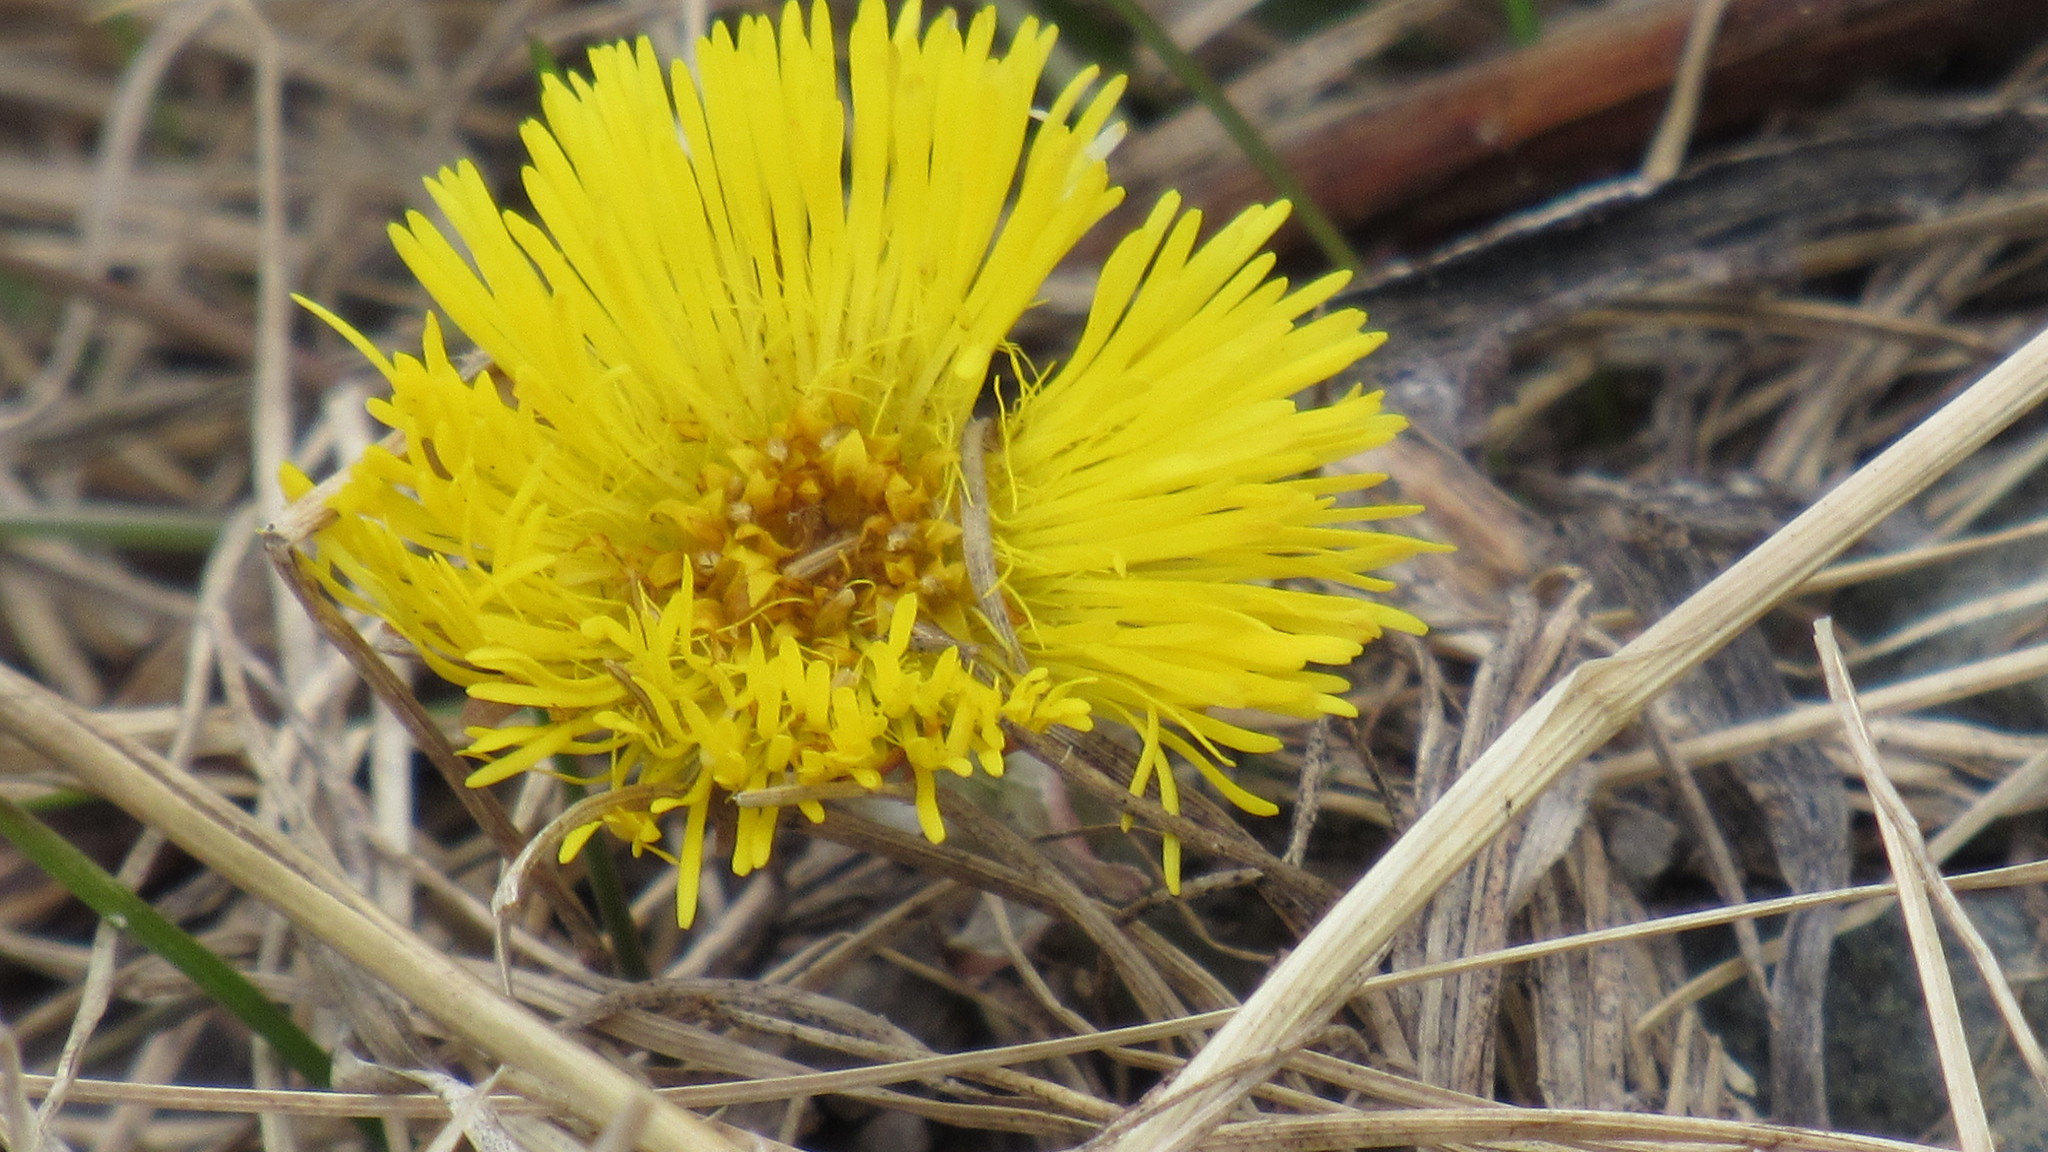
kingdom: Plantae
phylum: Tracheophyta
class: Magnoliopsida
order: Asterales
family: Asteraceae
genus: Tussilago
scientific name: Tussilago farfara
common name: Coltsfoot
